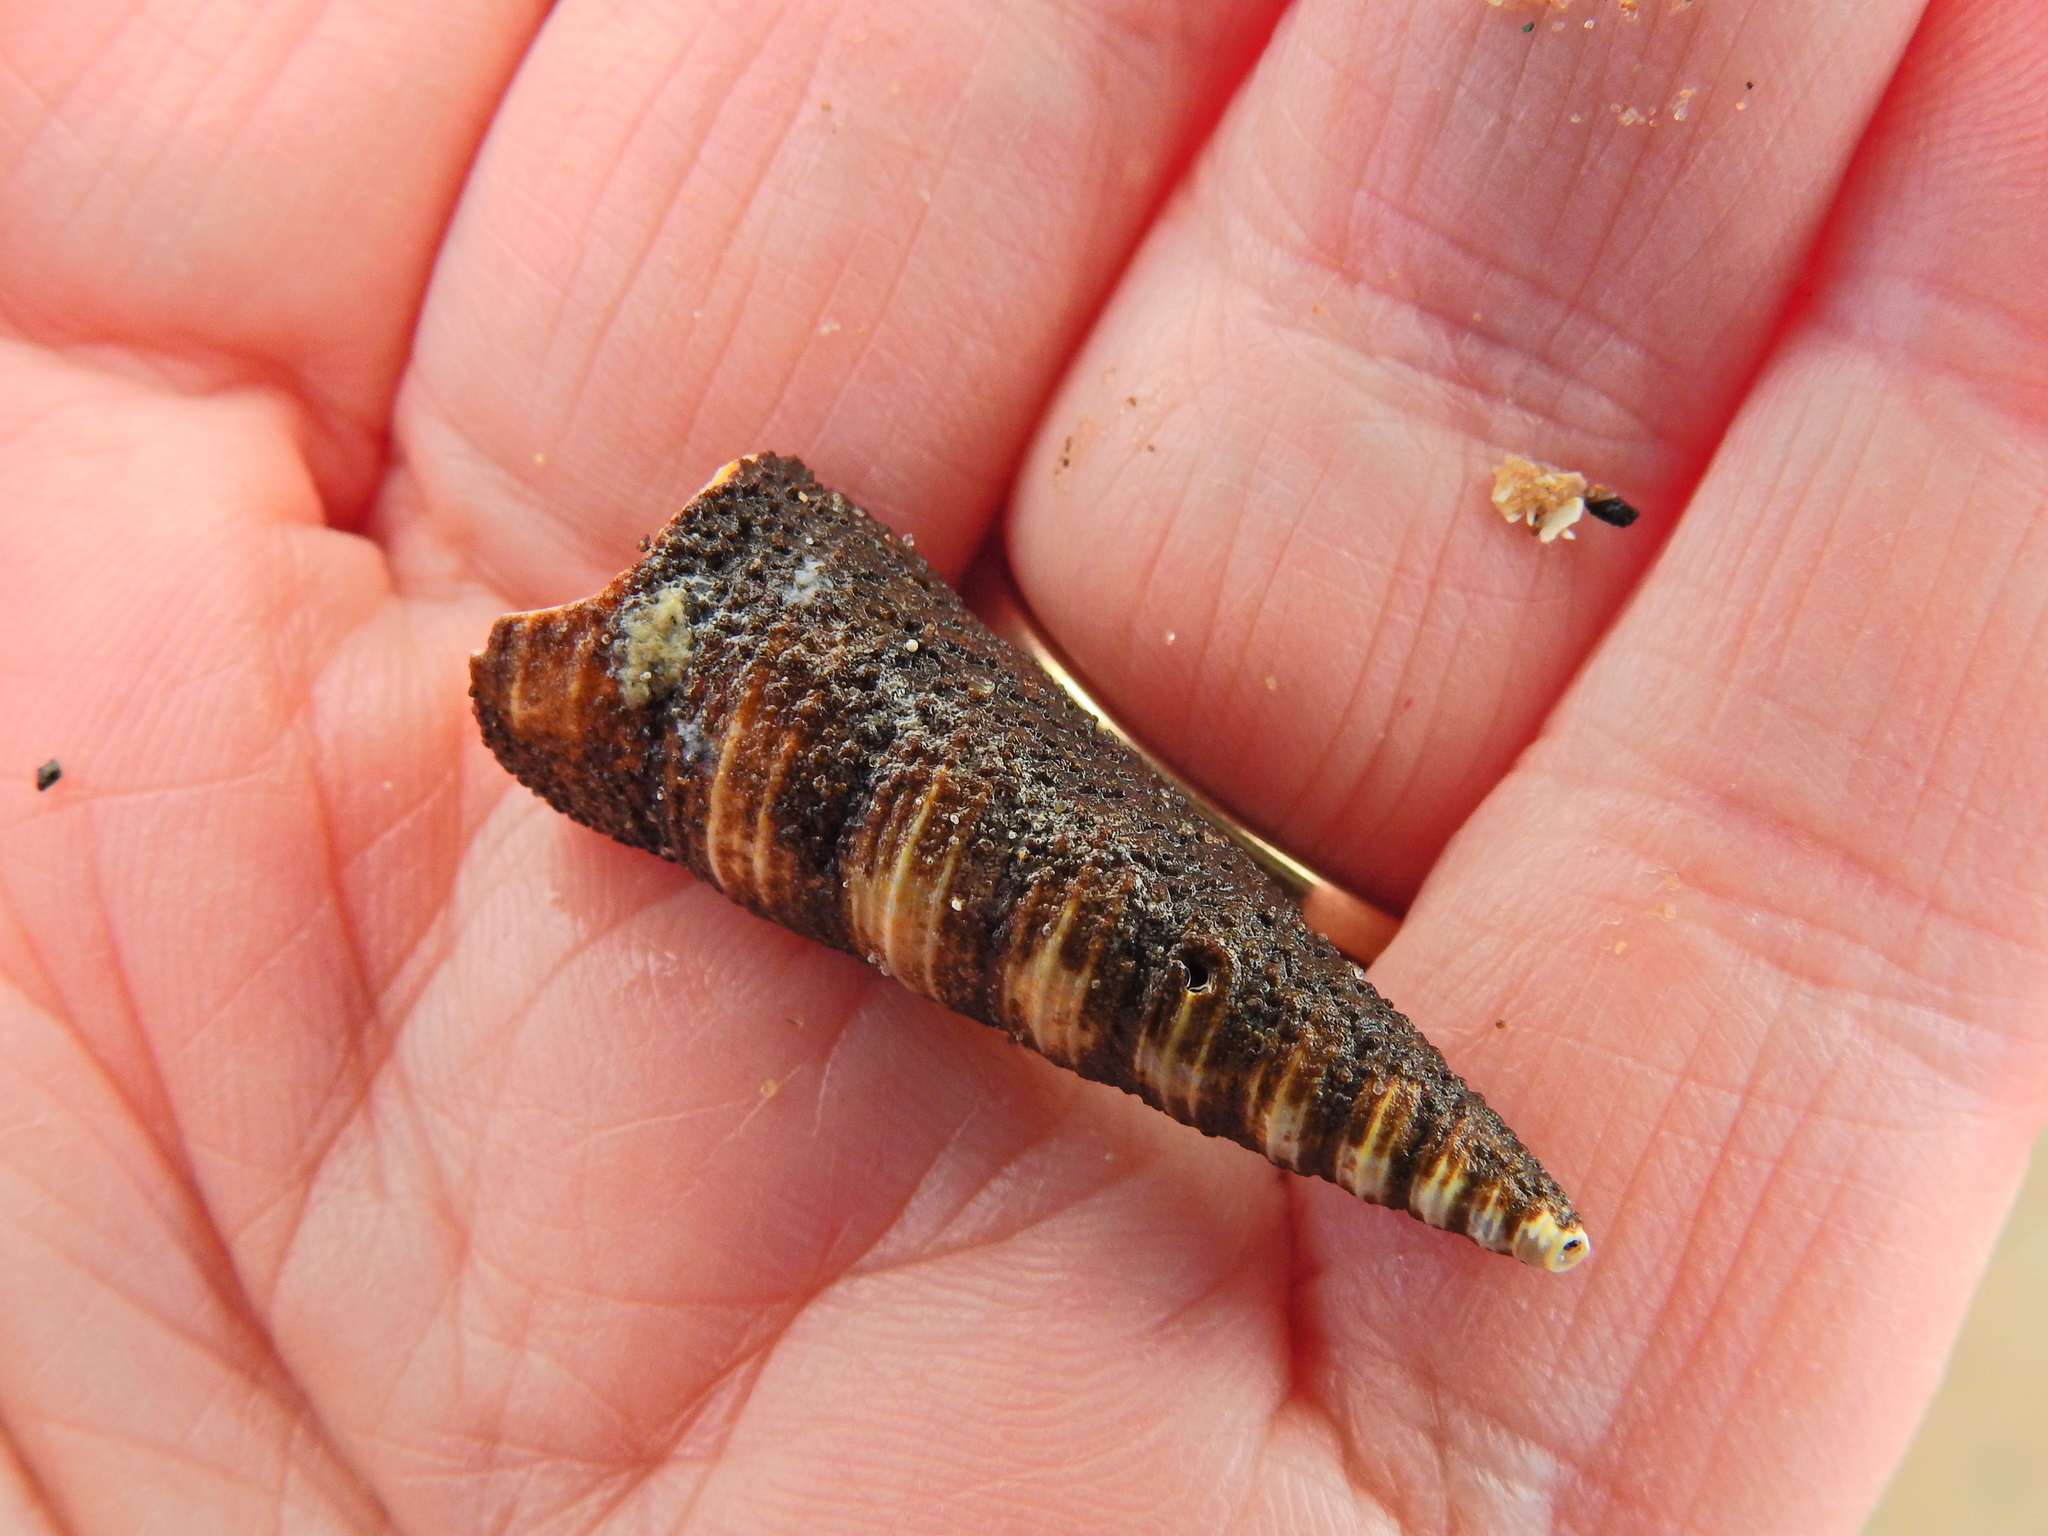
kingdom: Animalia
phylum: Cnidaria
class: Hydrozoa
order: Anthoathecata
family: Hydractiniidae
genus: Hydractinia
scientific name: Hydractinia echinata
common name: Rough hydroid
